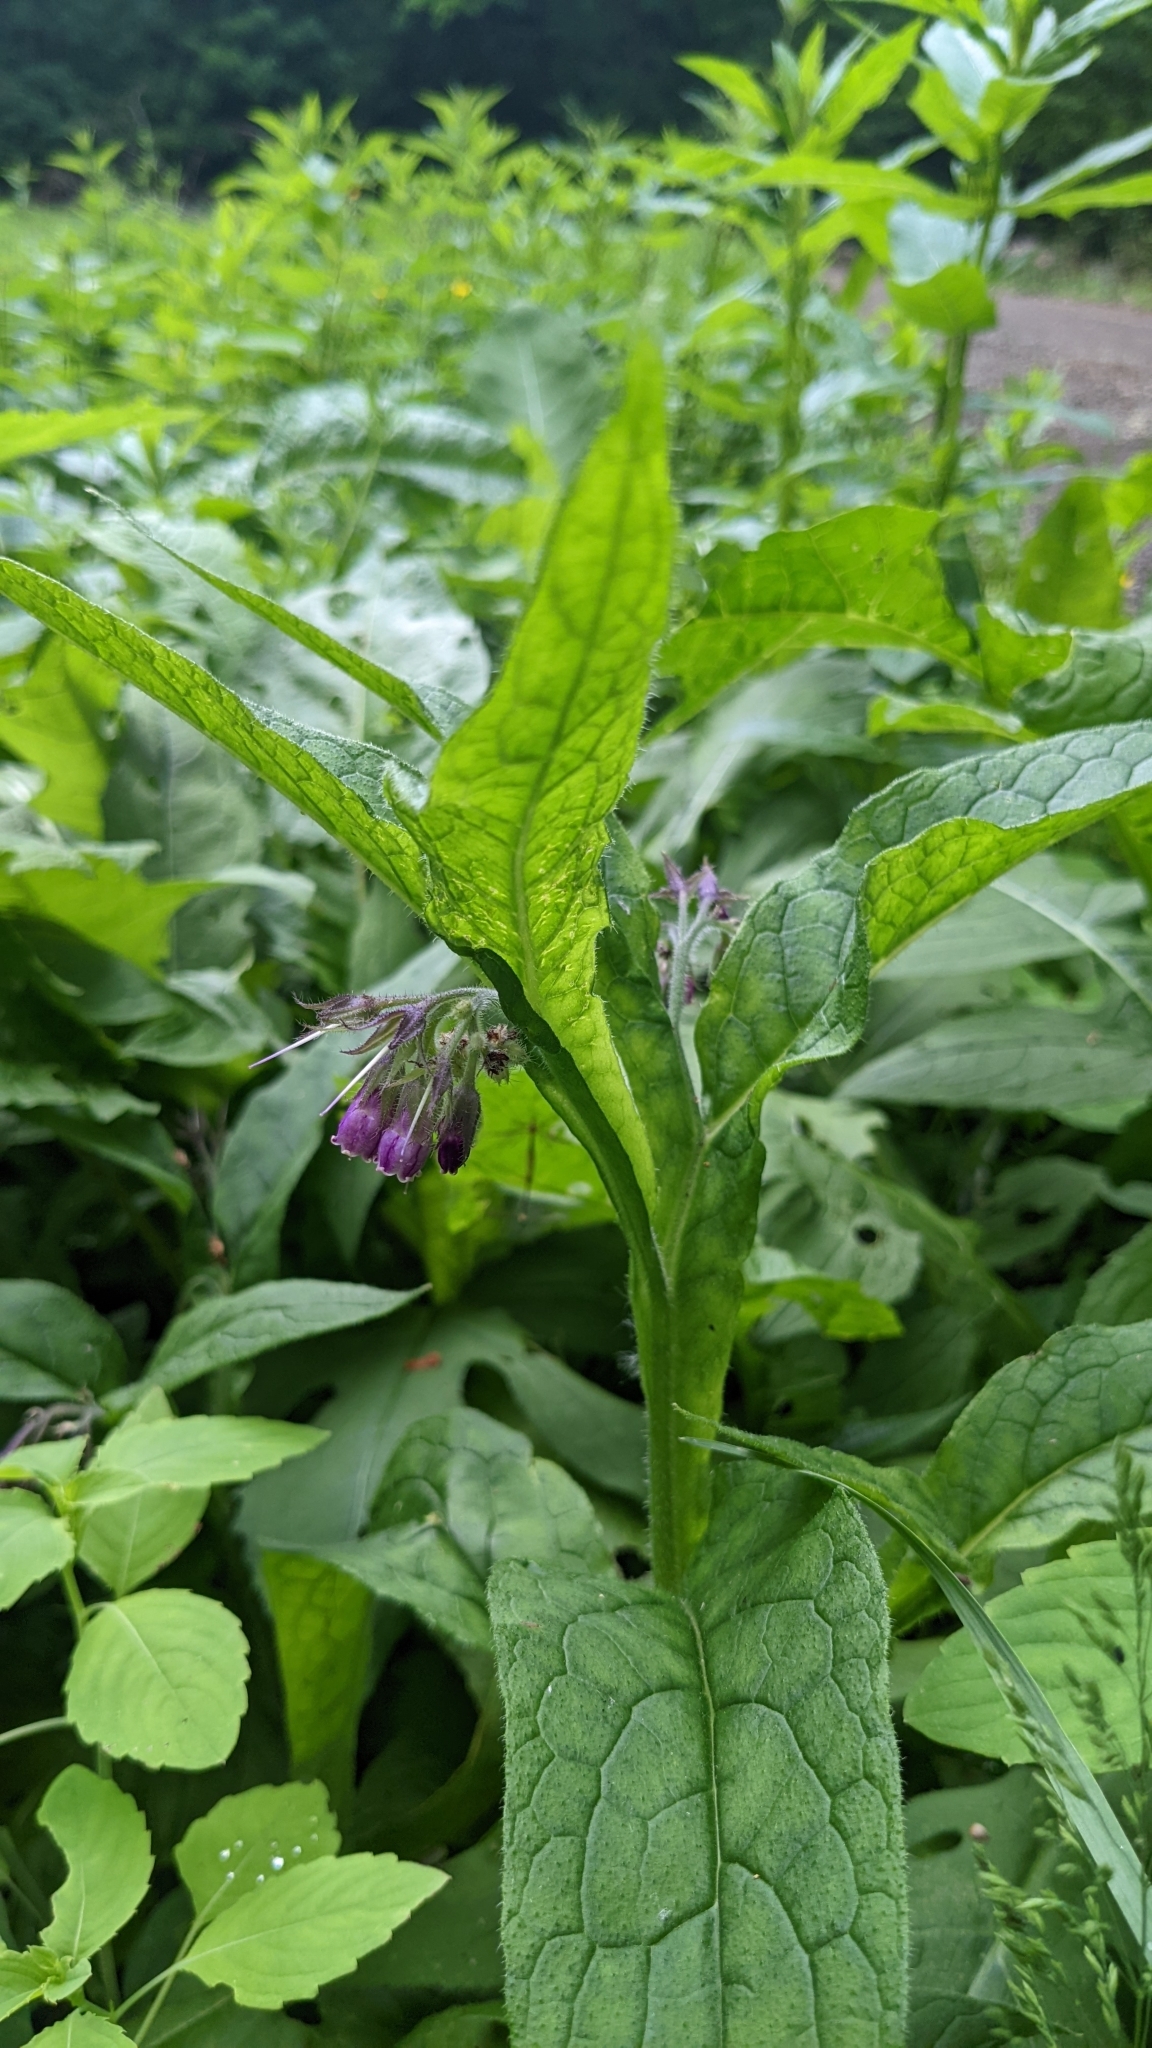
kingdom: Plantae
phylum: Tracheophyta
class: Magnoliopsida
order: Boraginales
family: Boraginaceae
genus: Symphytum
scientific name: Symphytum officinale
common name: Common comfrey
